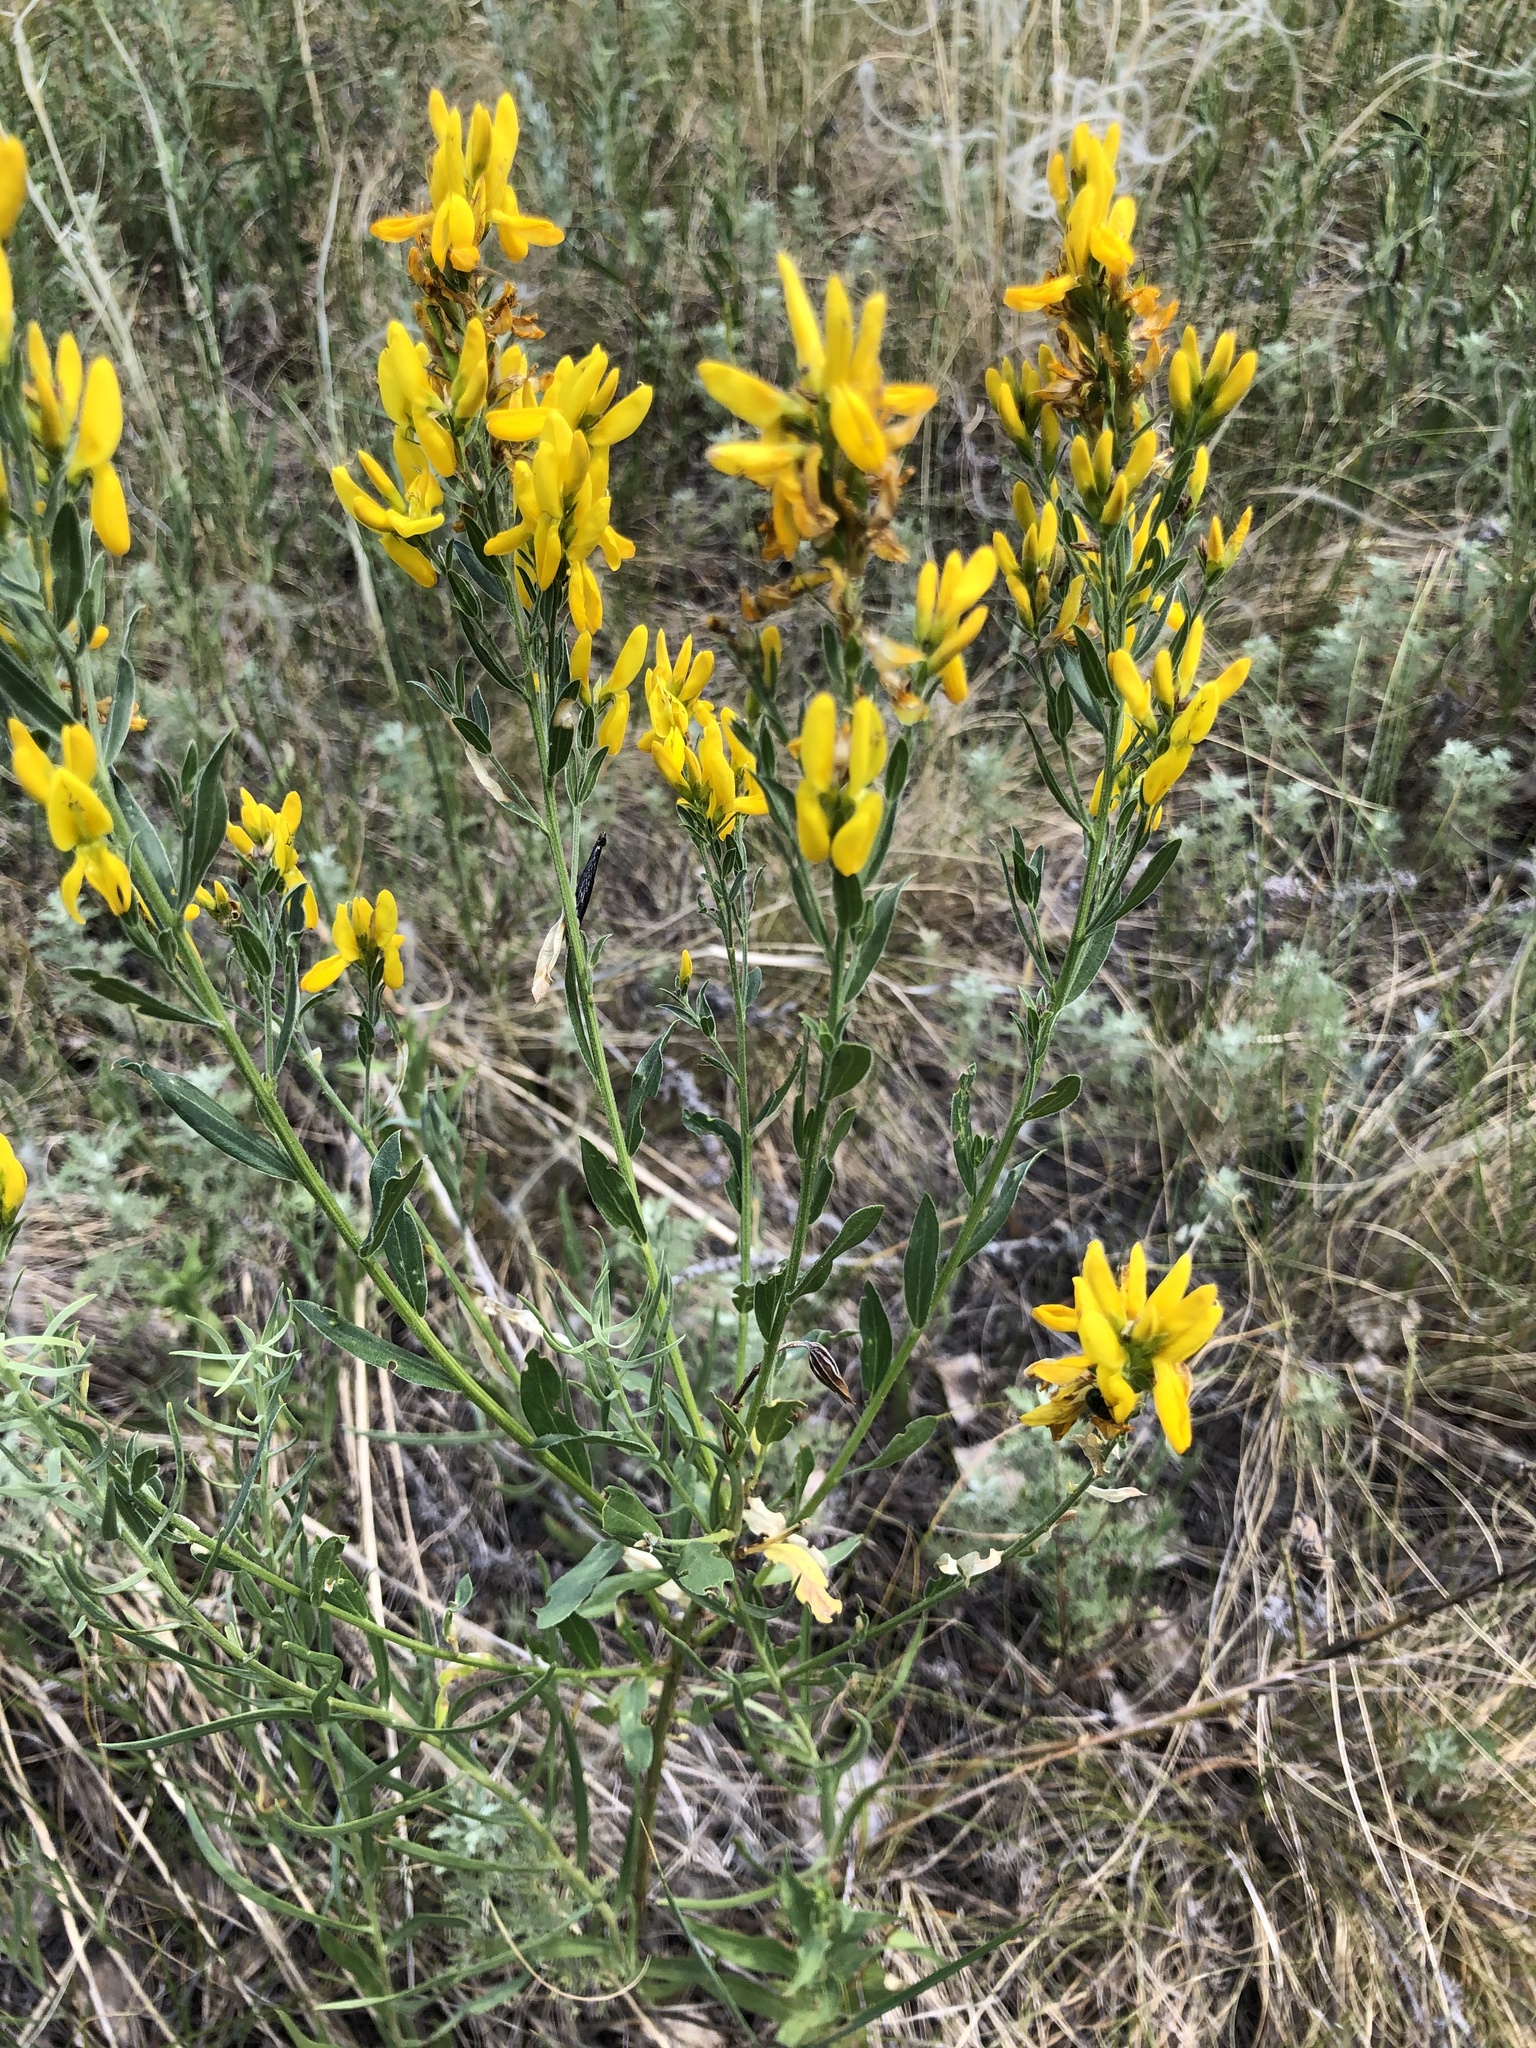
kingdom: Plantae
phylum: Tracheophyta
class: Magnoliopsida
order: Fabales
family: Fabaceae
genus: Genista
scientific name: Genista tinctoria
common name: Dyer's greenweed
